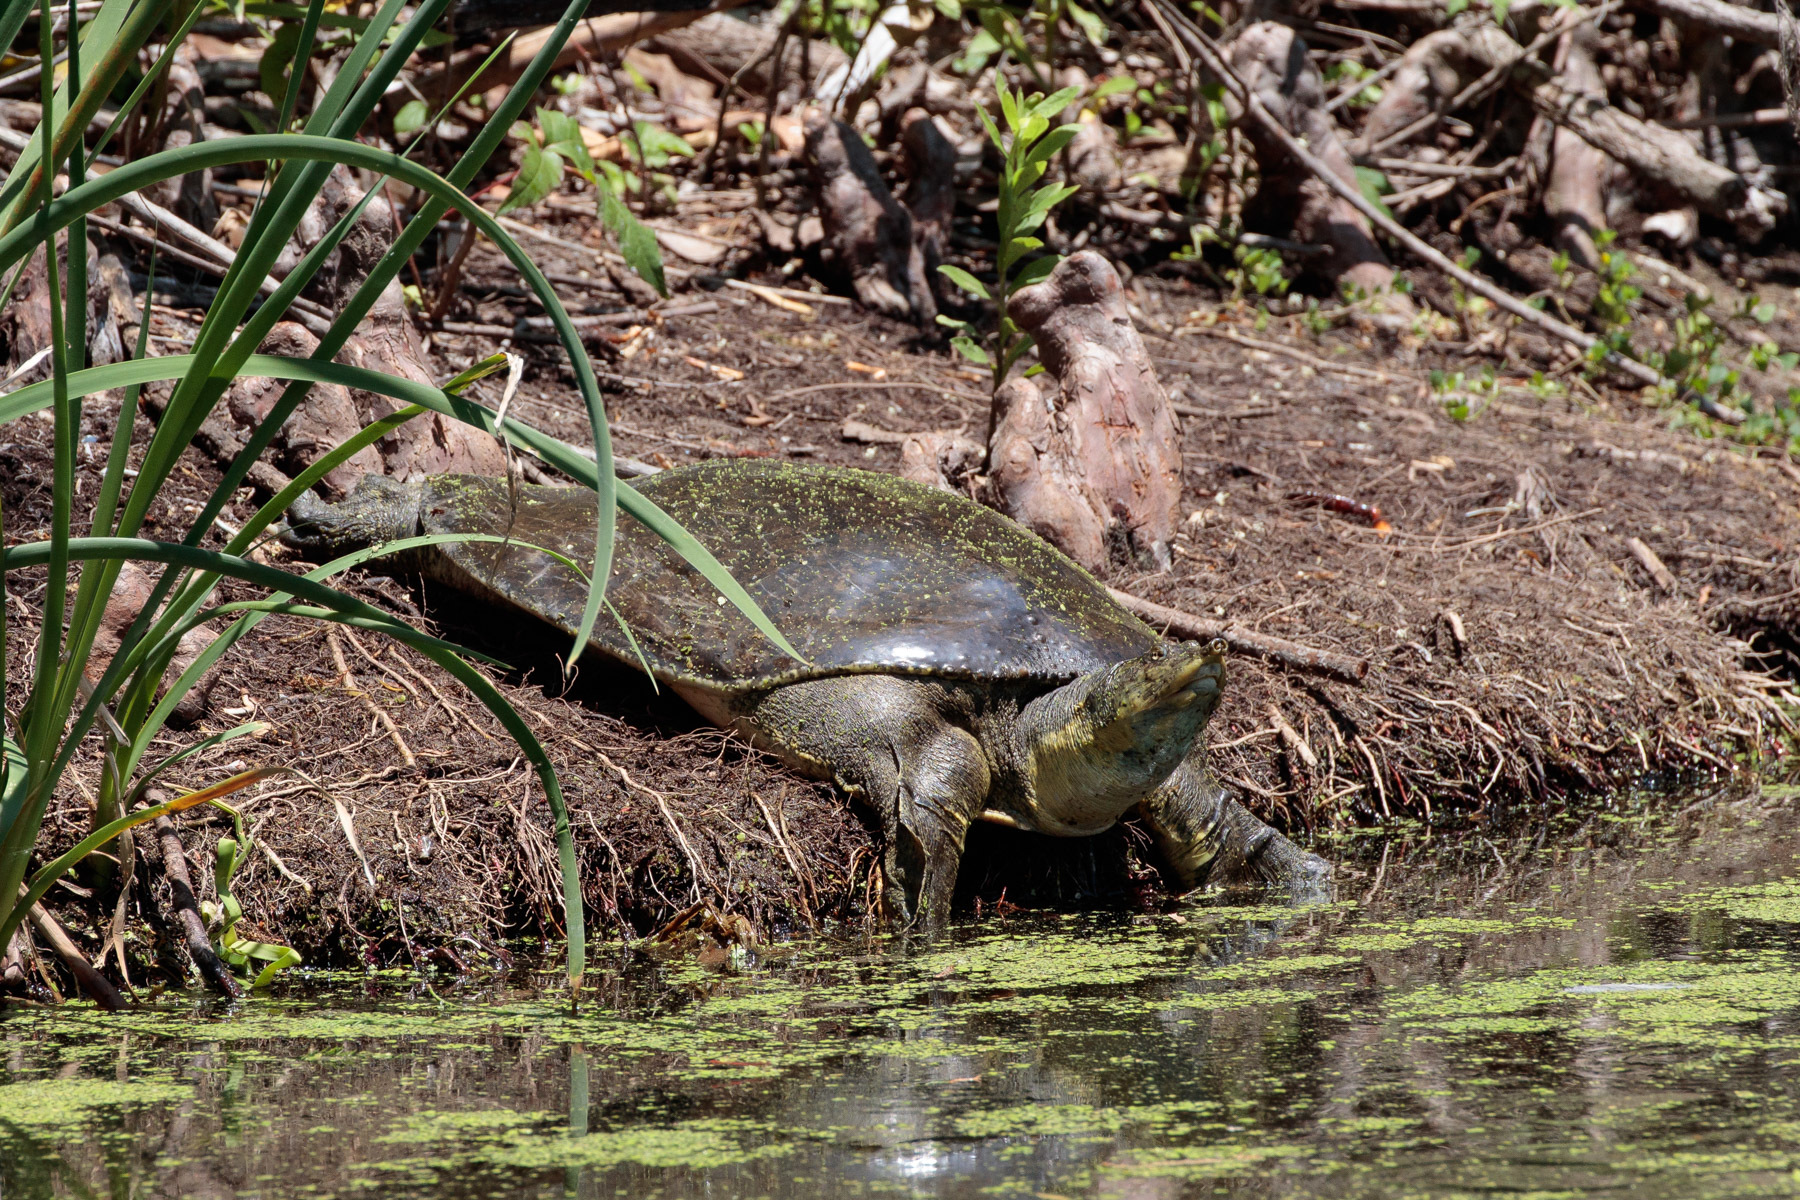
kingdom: Animalia
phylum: Chordata
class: Testudines
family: Trionychidae
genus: Apalone
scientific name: Apalone spinifera
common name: Spiny softshell turtle
